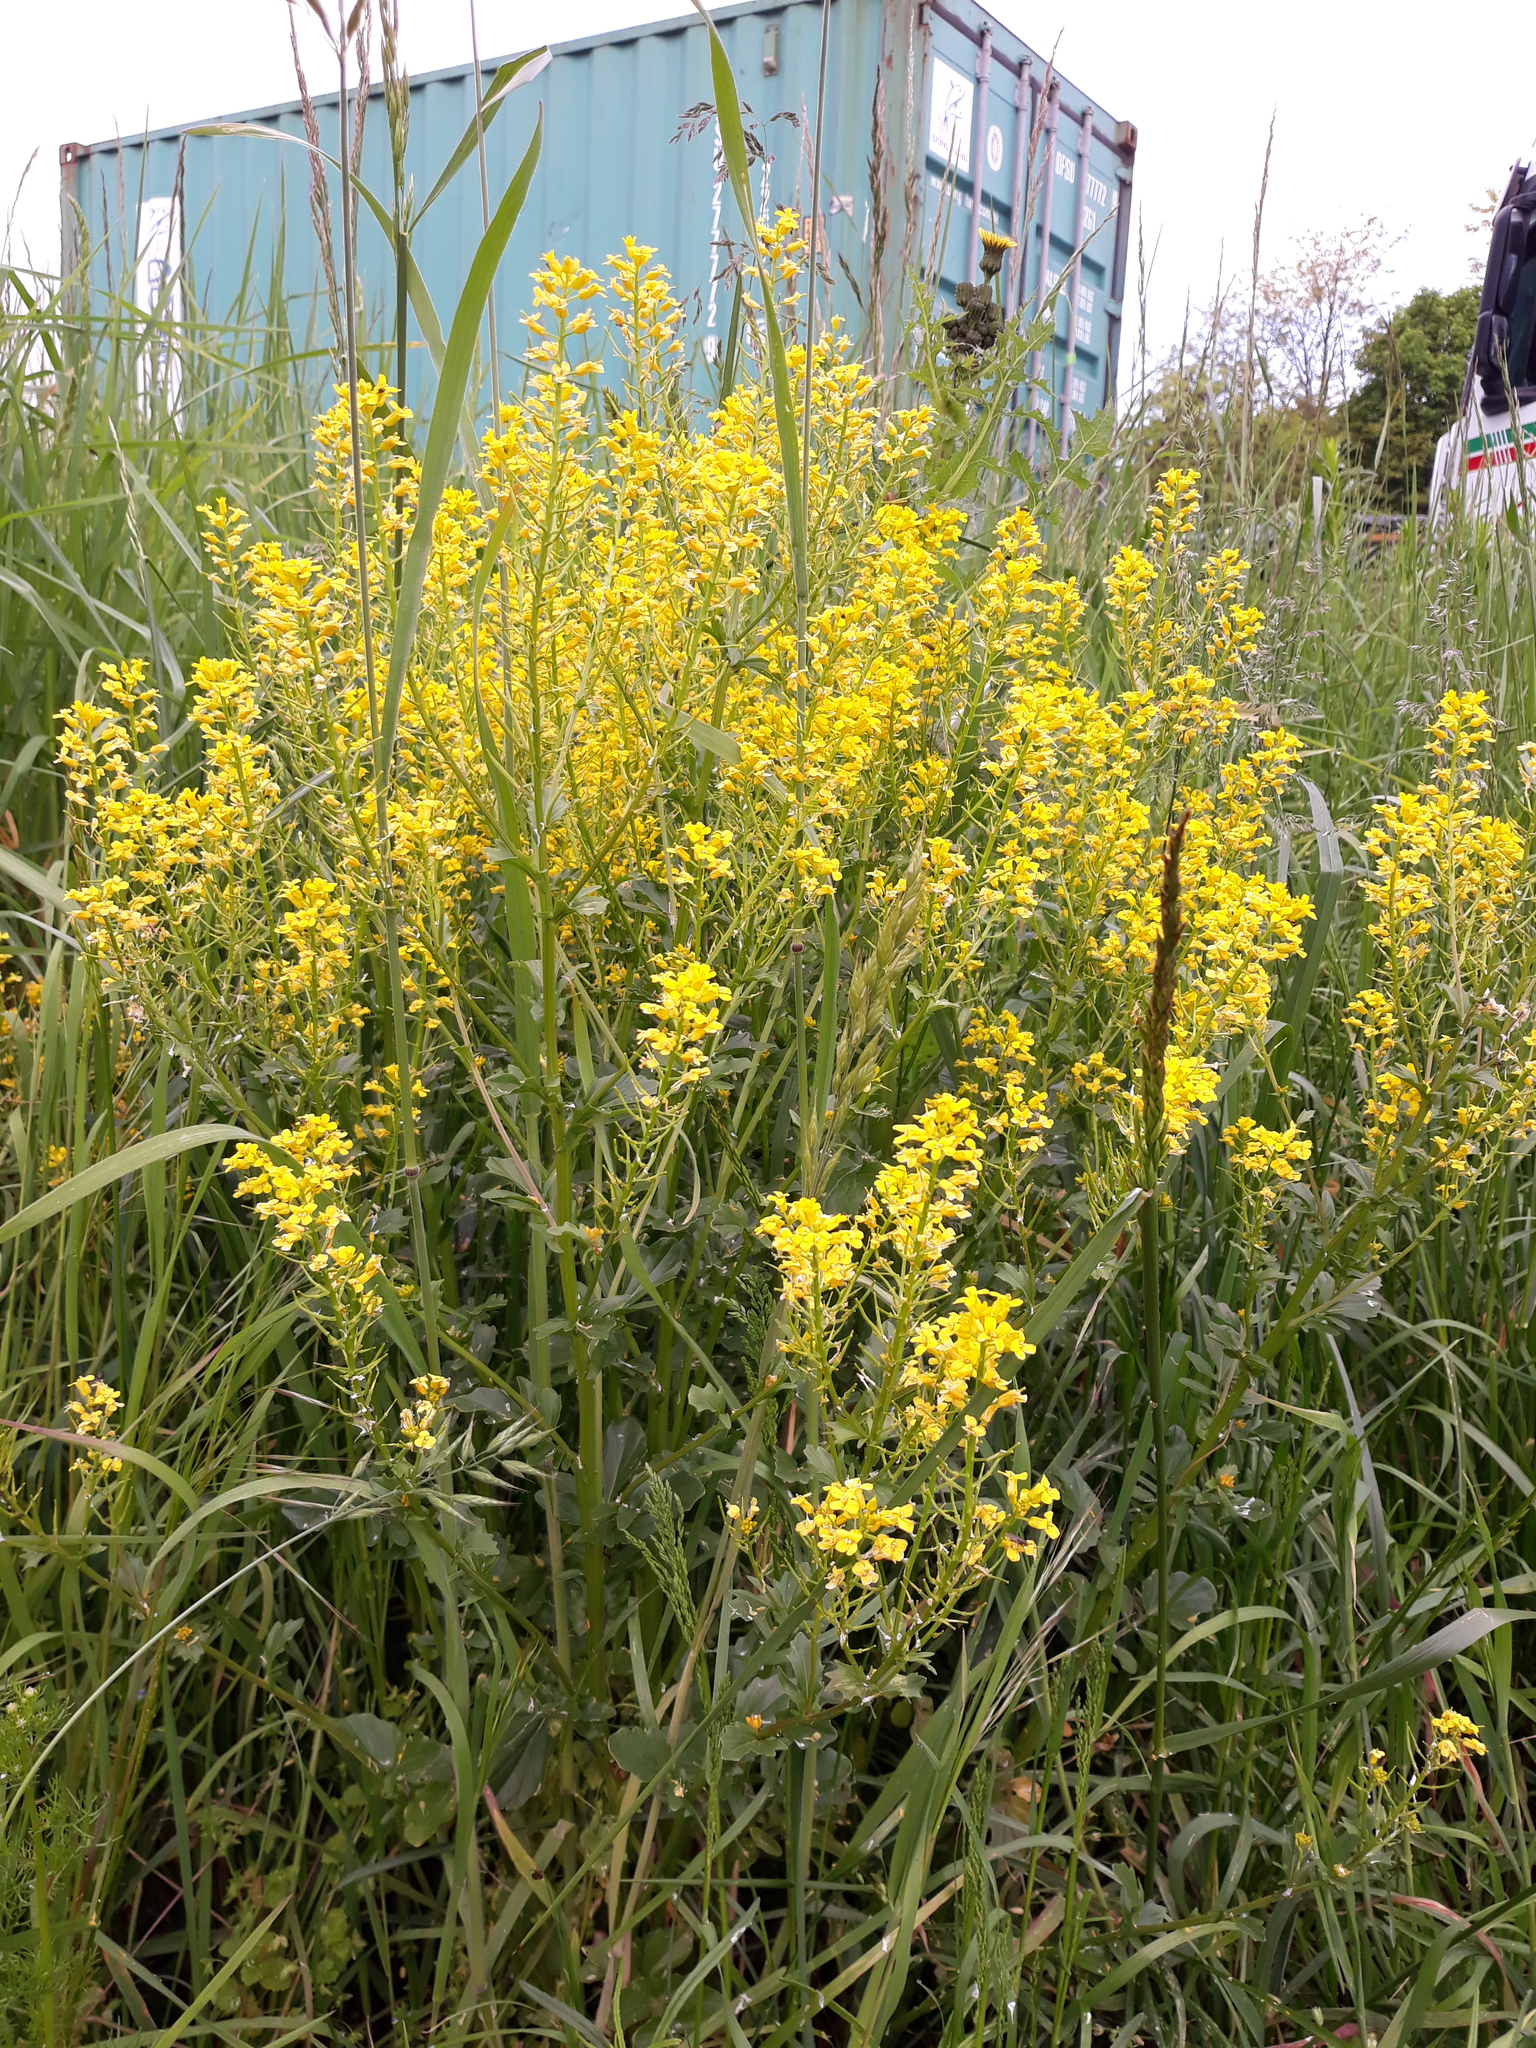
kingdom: Plantae
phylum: Tracheophyta
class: Magnoliopsida
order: Brassicales
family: Brassicaceae
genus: Barbarea
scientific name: Barbarea vulgaris
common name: Cressy-greens
